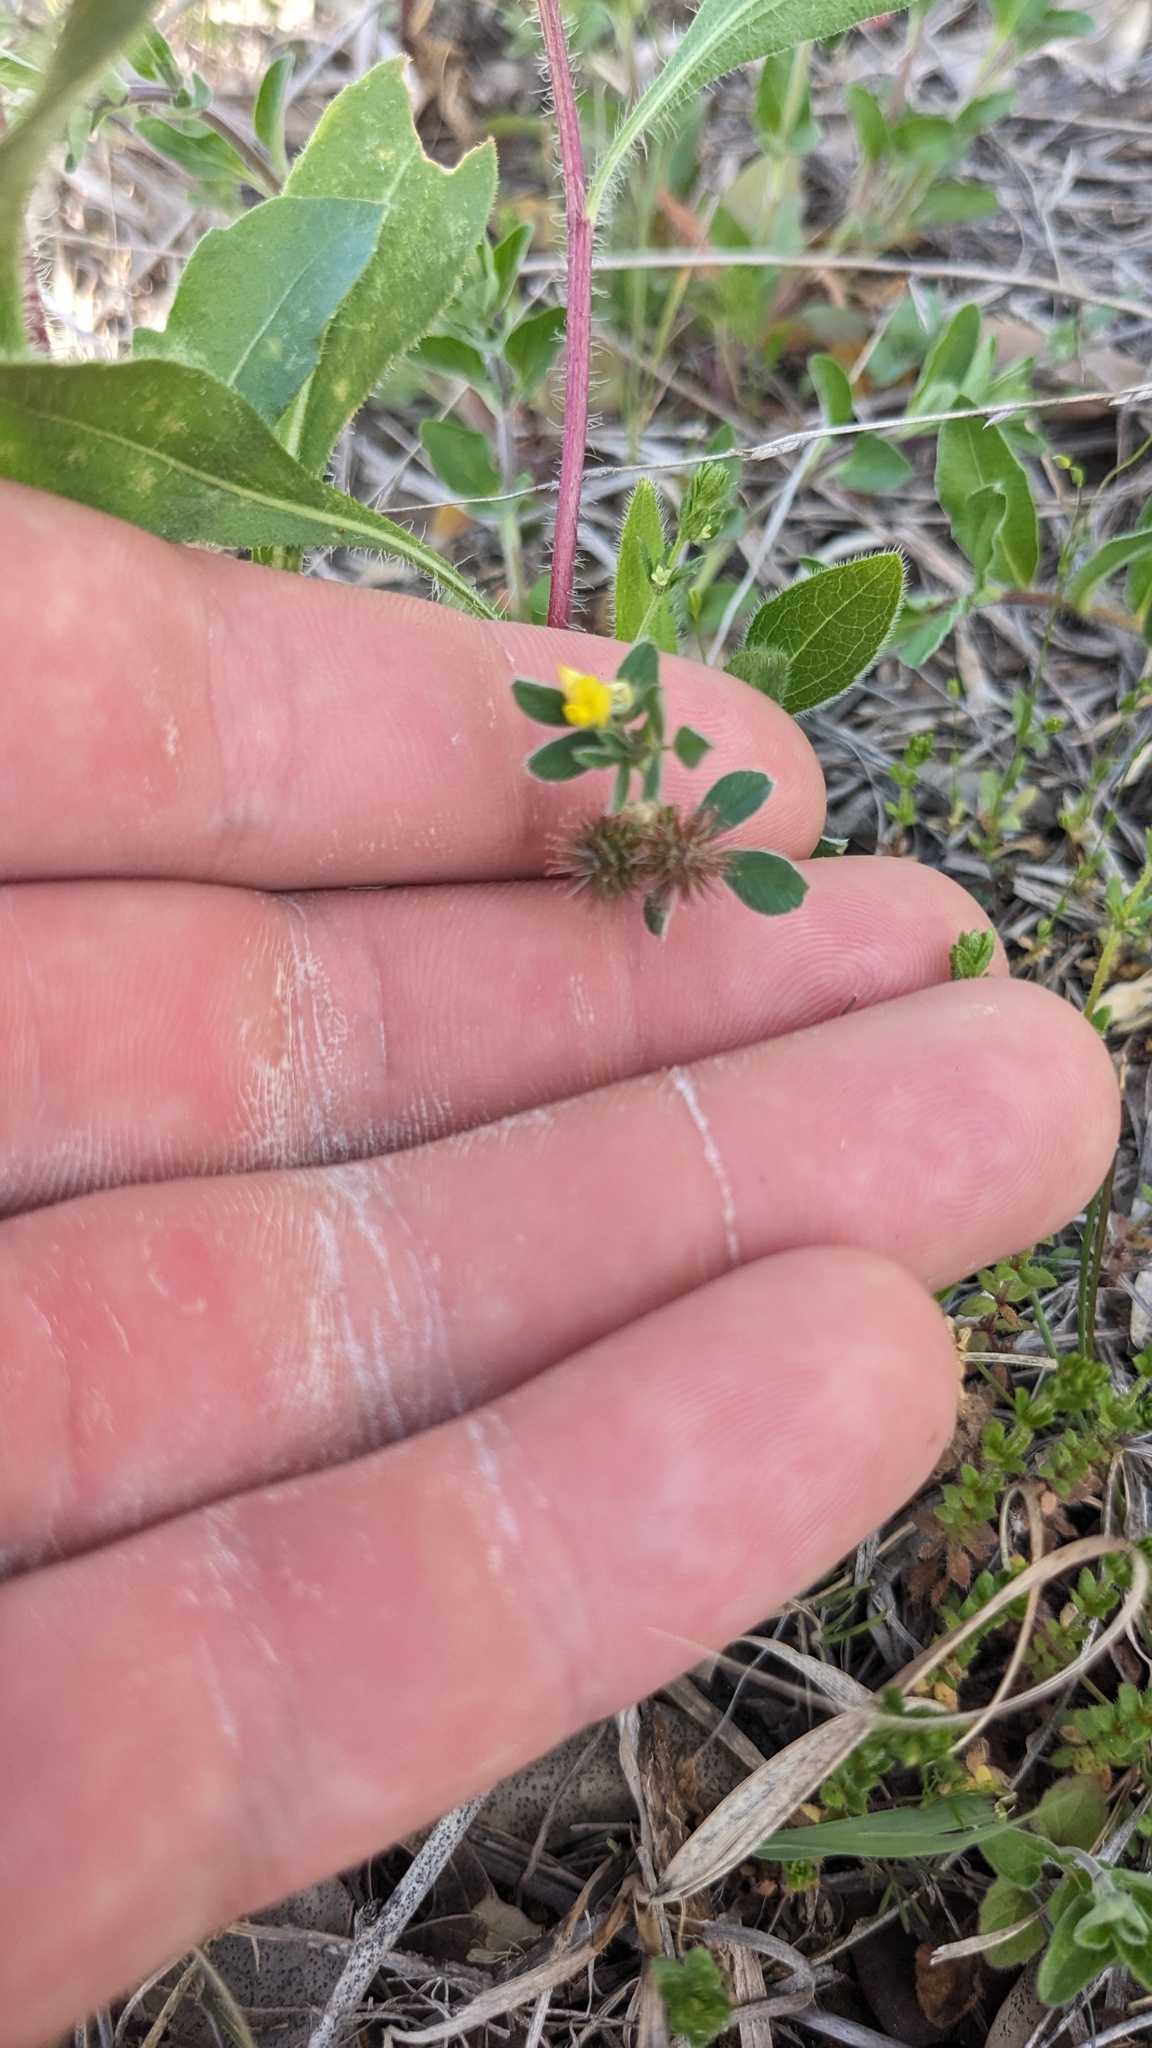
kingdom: Plantae
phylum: Tracheophyta
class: Magnoliopsida
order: Fabales
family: Fabaceae
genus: Medicago
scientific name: Medicago minima
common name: Little bur-clover
